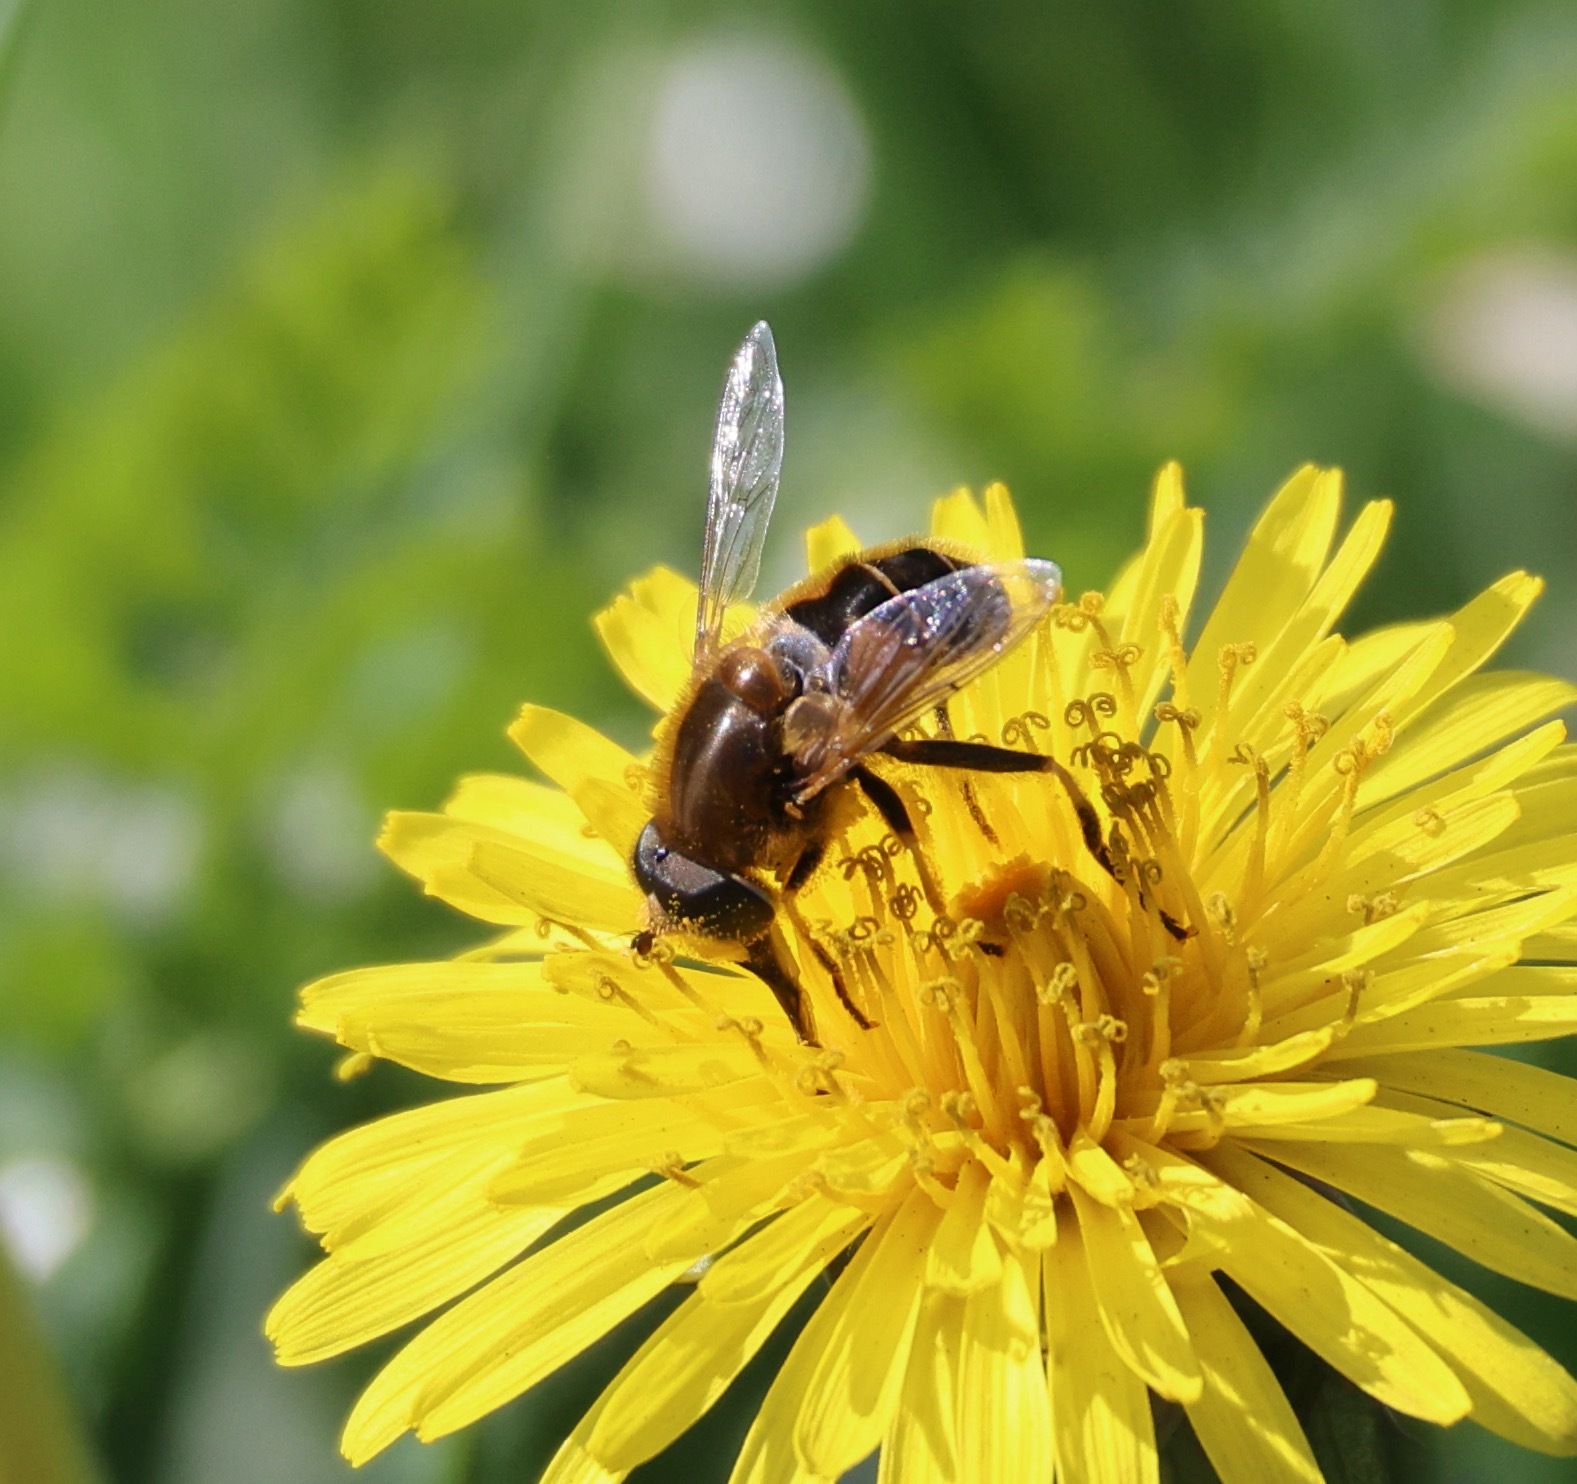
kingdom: Animalia
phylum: Arthropoda
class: Insecta
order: Diptera
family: Syrphidae
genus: Eristalis
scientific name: Eristalis nemorum
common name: Orange-spined drone fly
